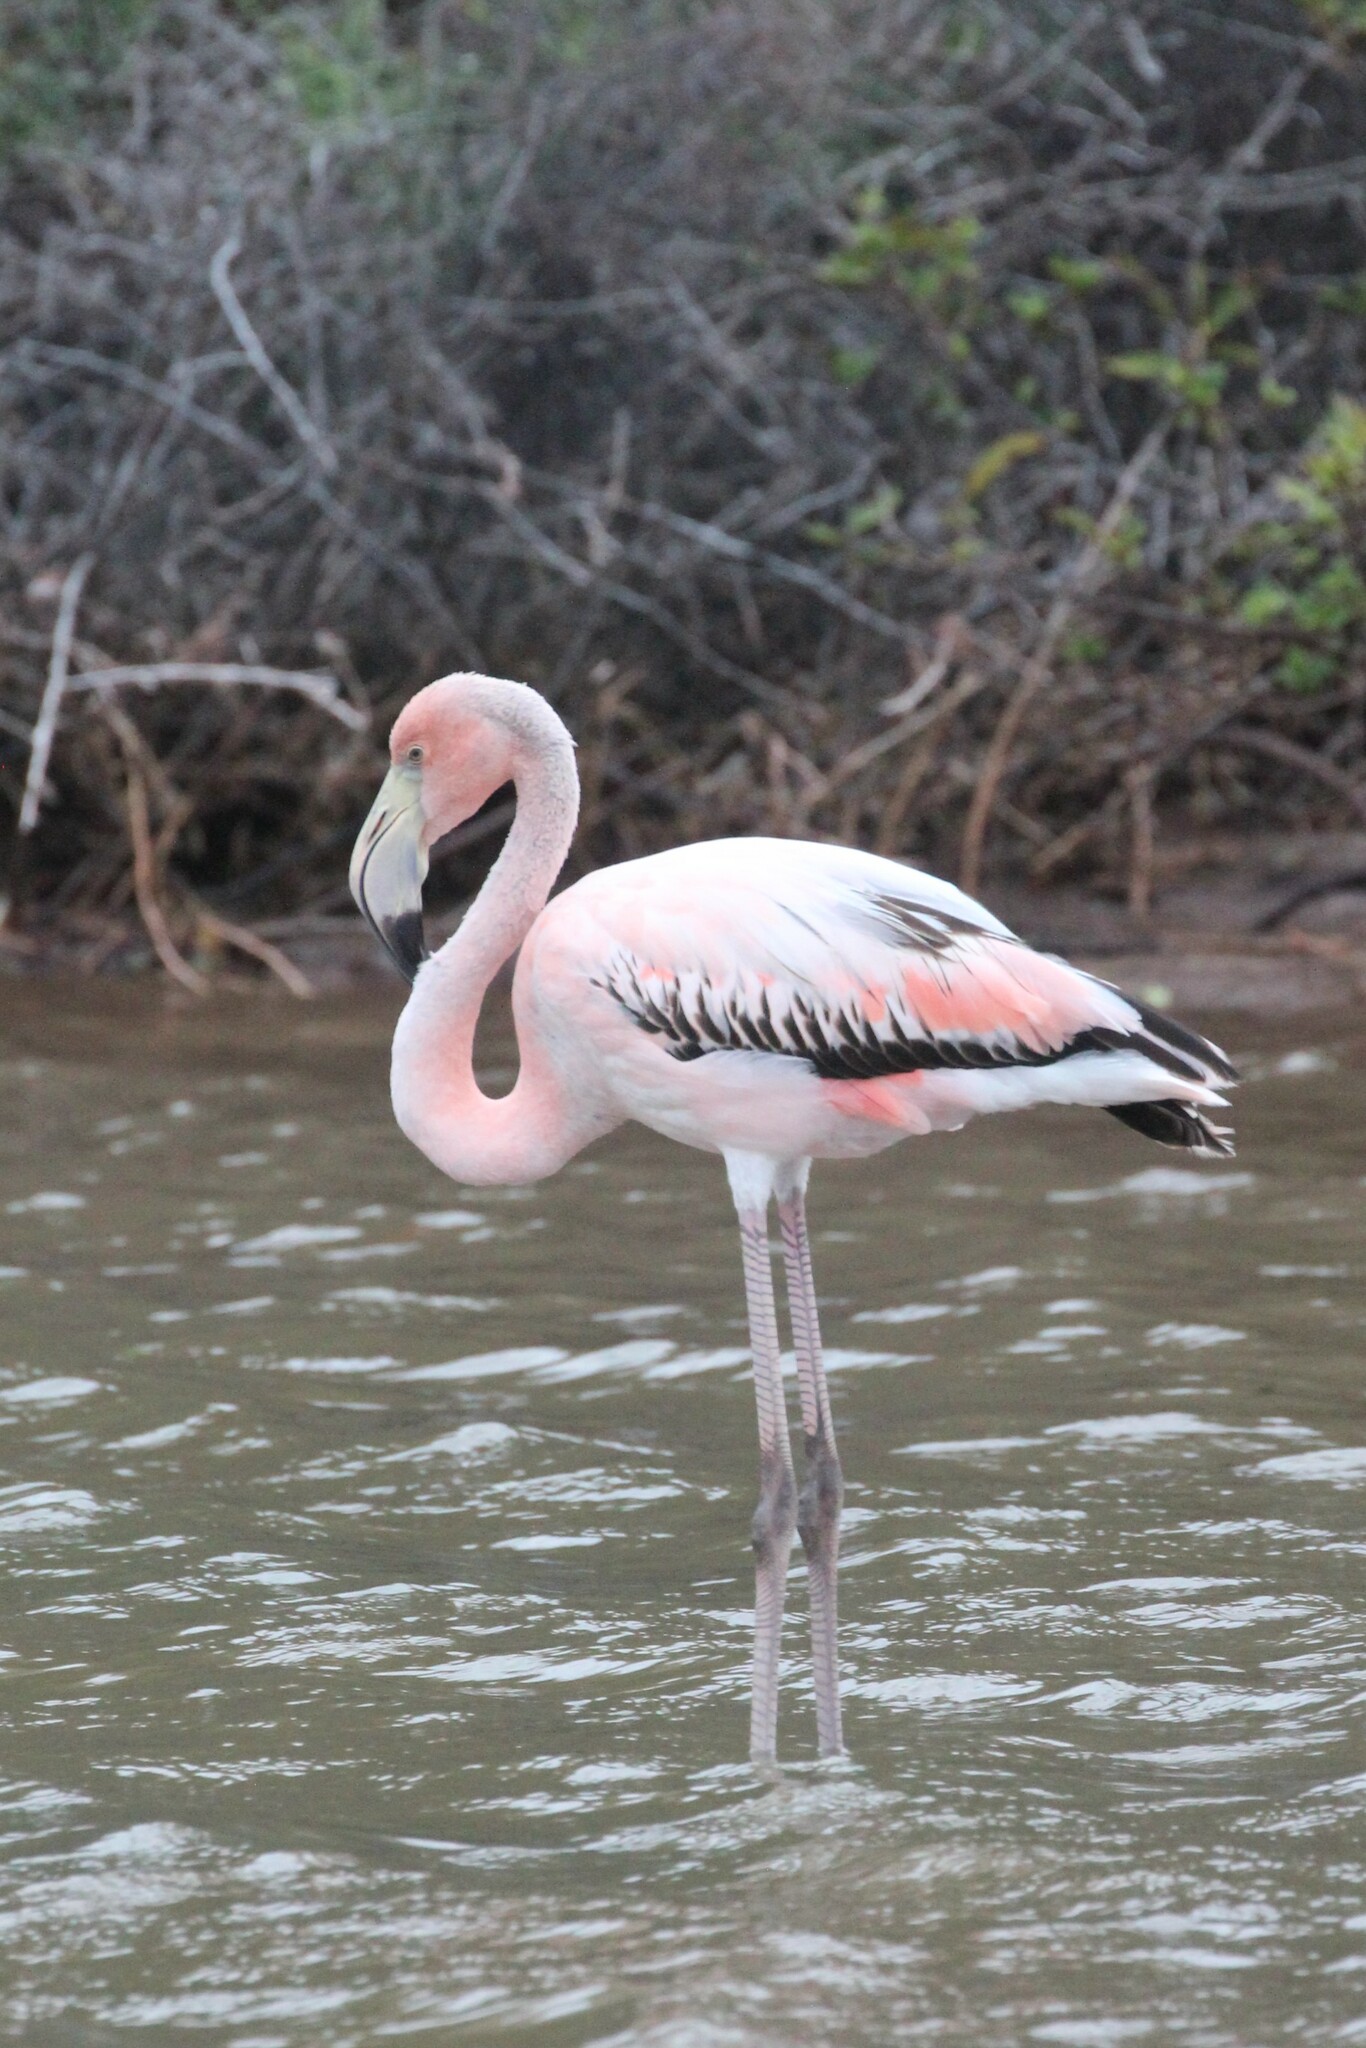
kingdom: Animalia
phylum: Chordata
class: Aves
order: Phoenicopteriformes
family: Phoenicopteridae
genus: Phoenicopterus
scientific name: Phoenicopterus ruber
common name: American flamingo
